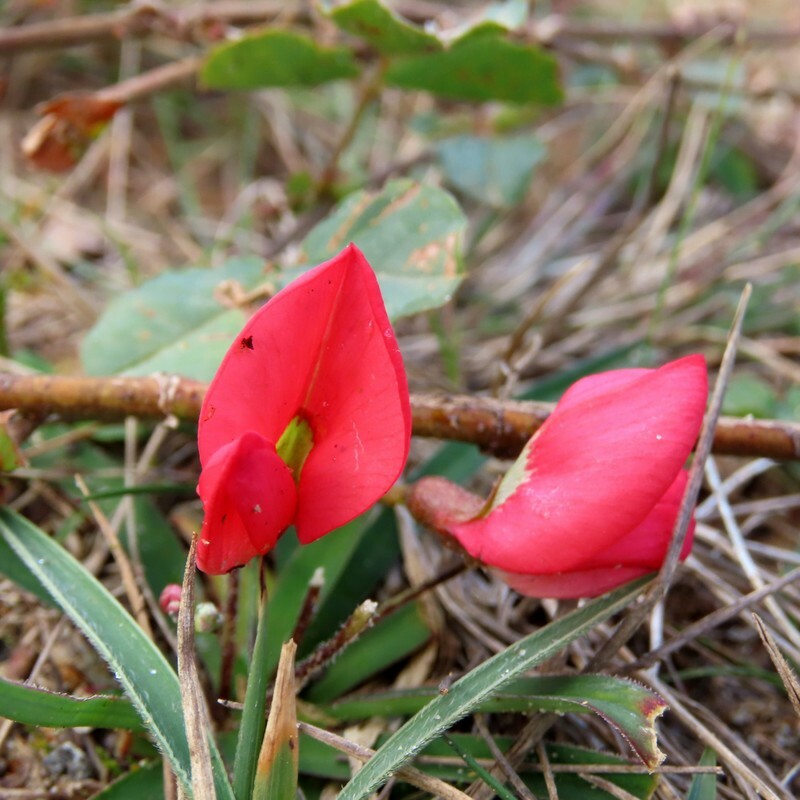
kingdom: Plantae
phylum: Tracheophyta
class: Magnoliopsida
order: Fabales
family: Fabaceae
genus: Kennedia
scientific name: Kennedia prostrata
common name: Running-postman
